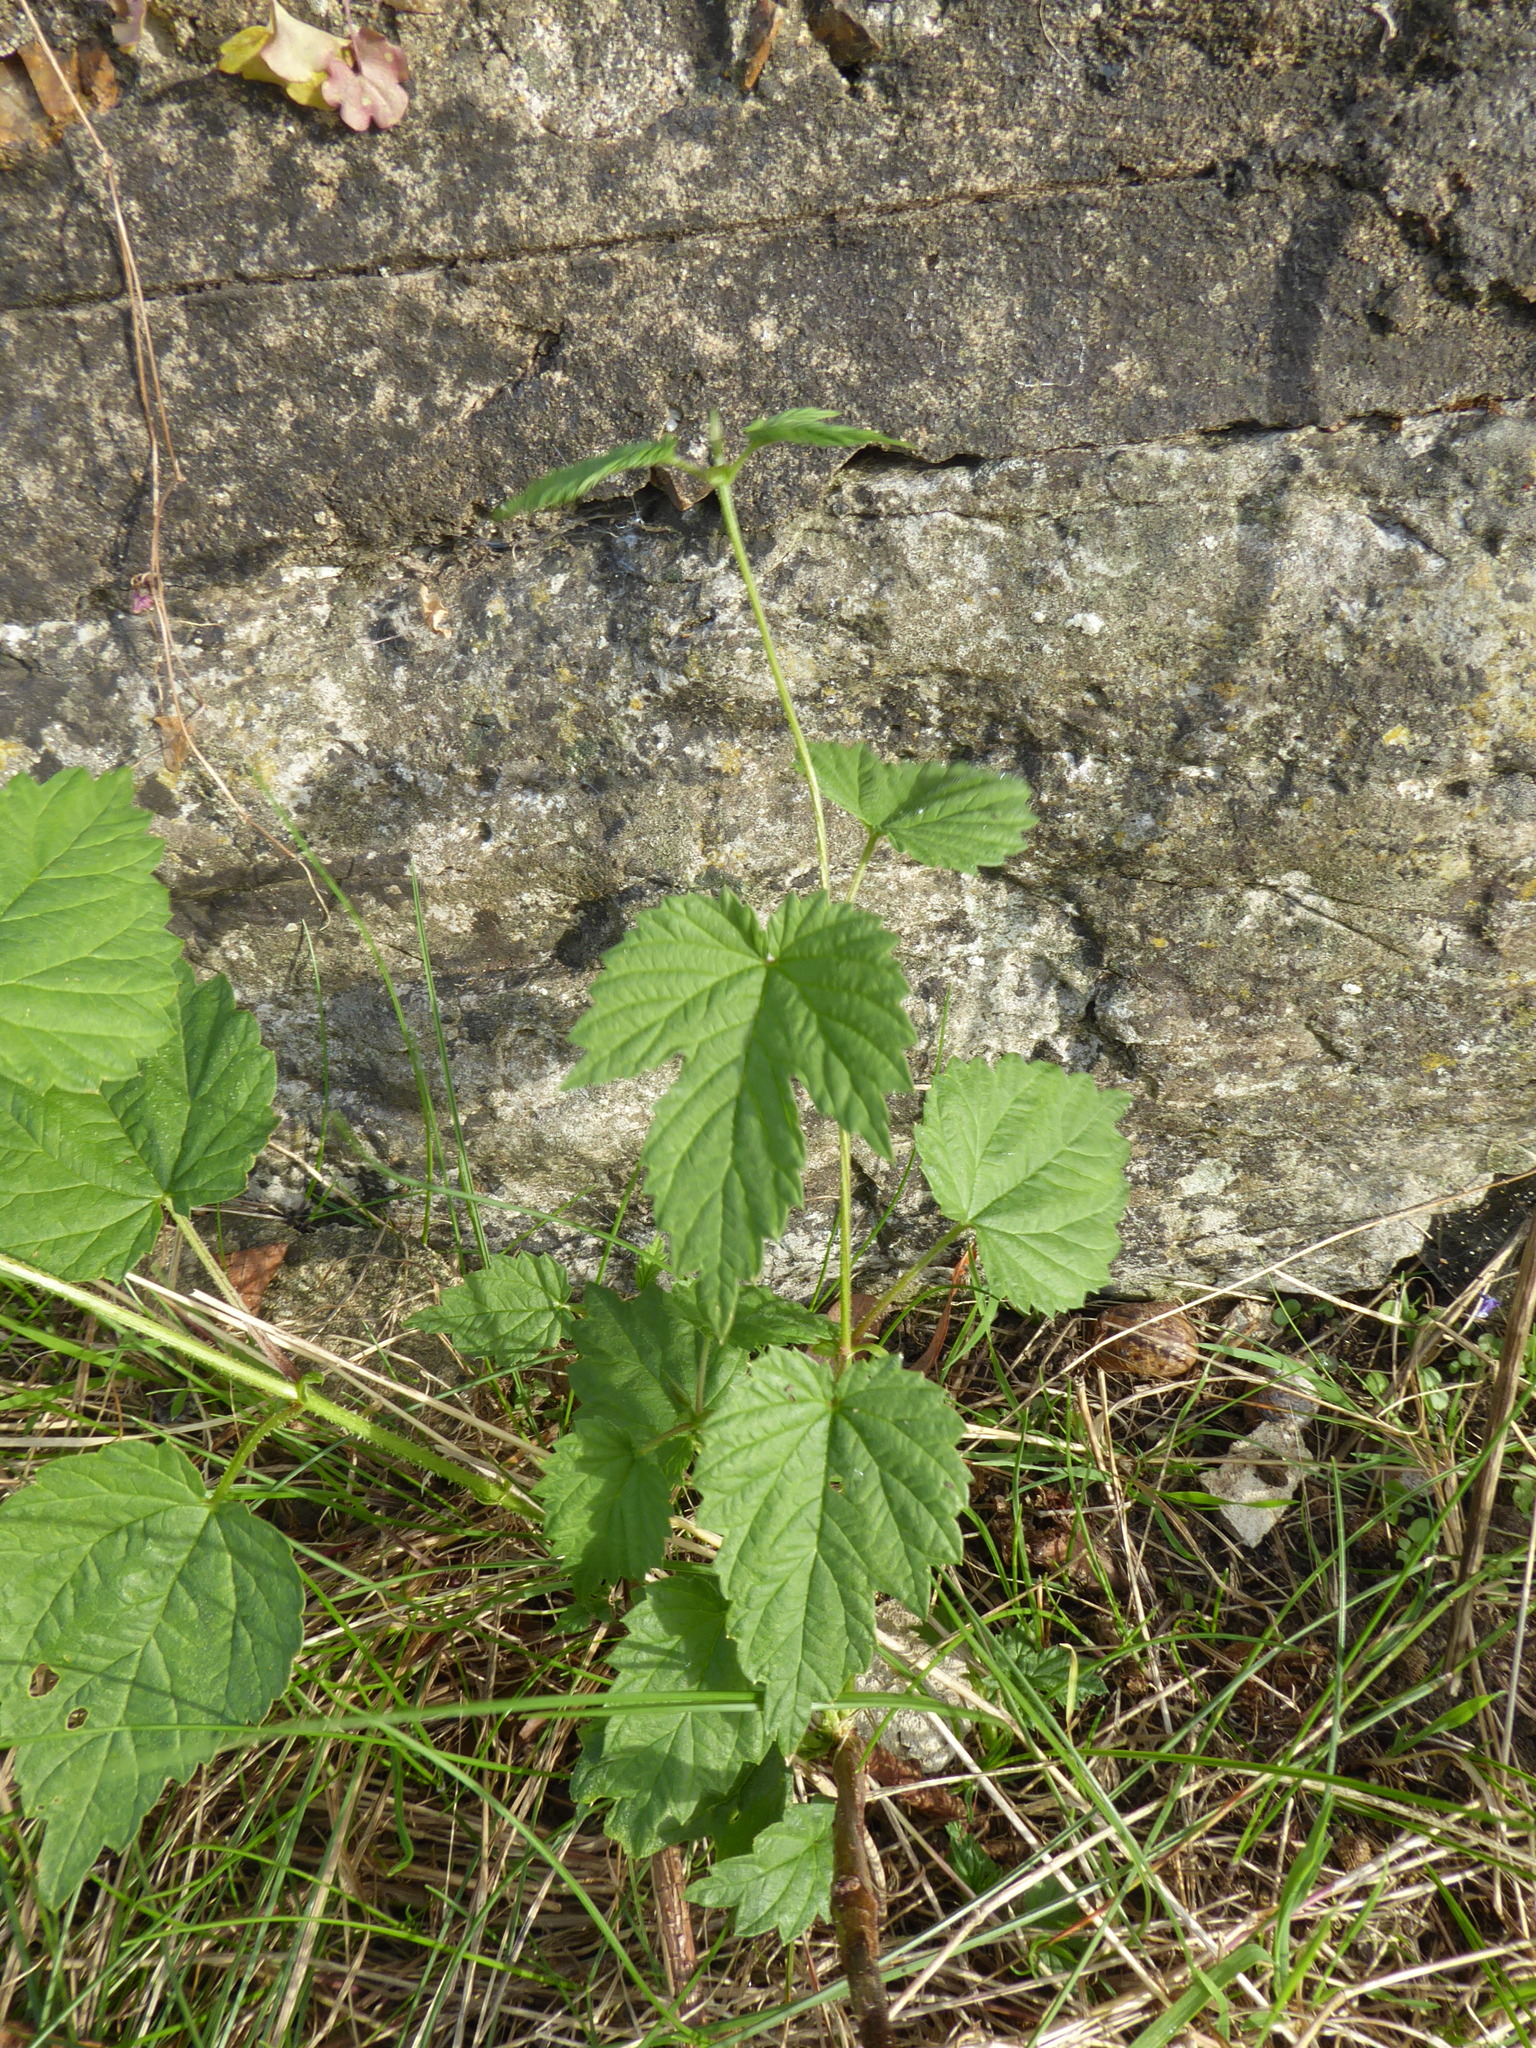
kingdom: Plantae
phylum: Tracheophyta
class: Magnoliopsida
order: Rosales
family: Cannabaceae
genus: Humulus
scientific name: Humulus lupulus
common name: Hop
